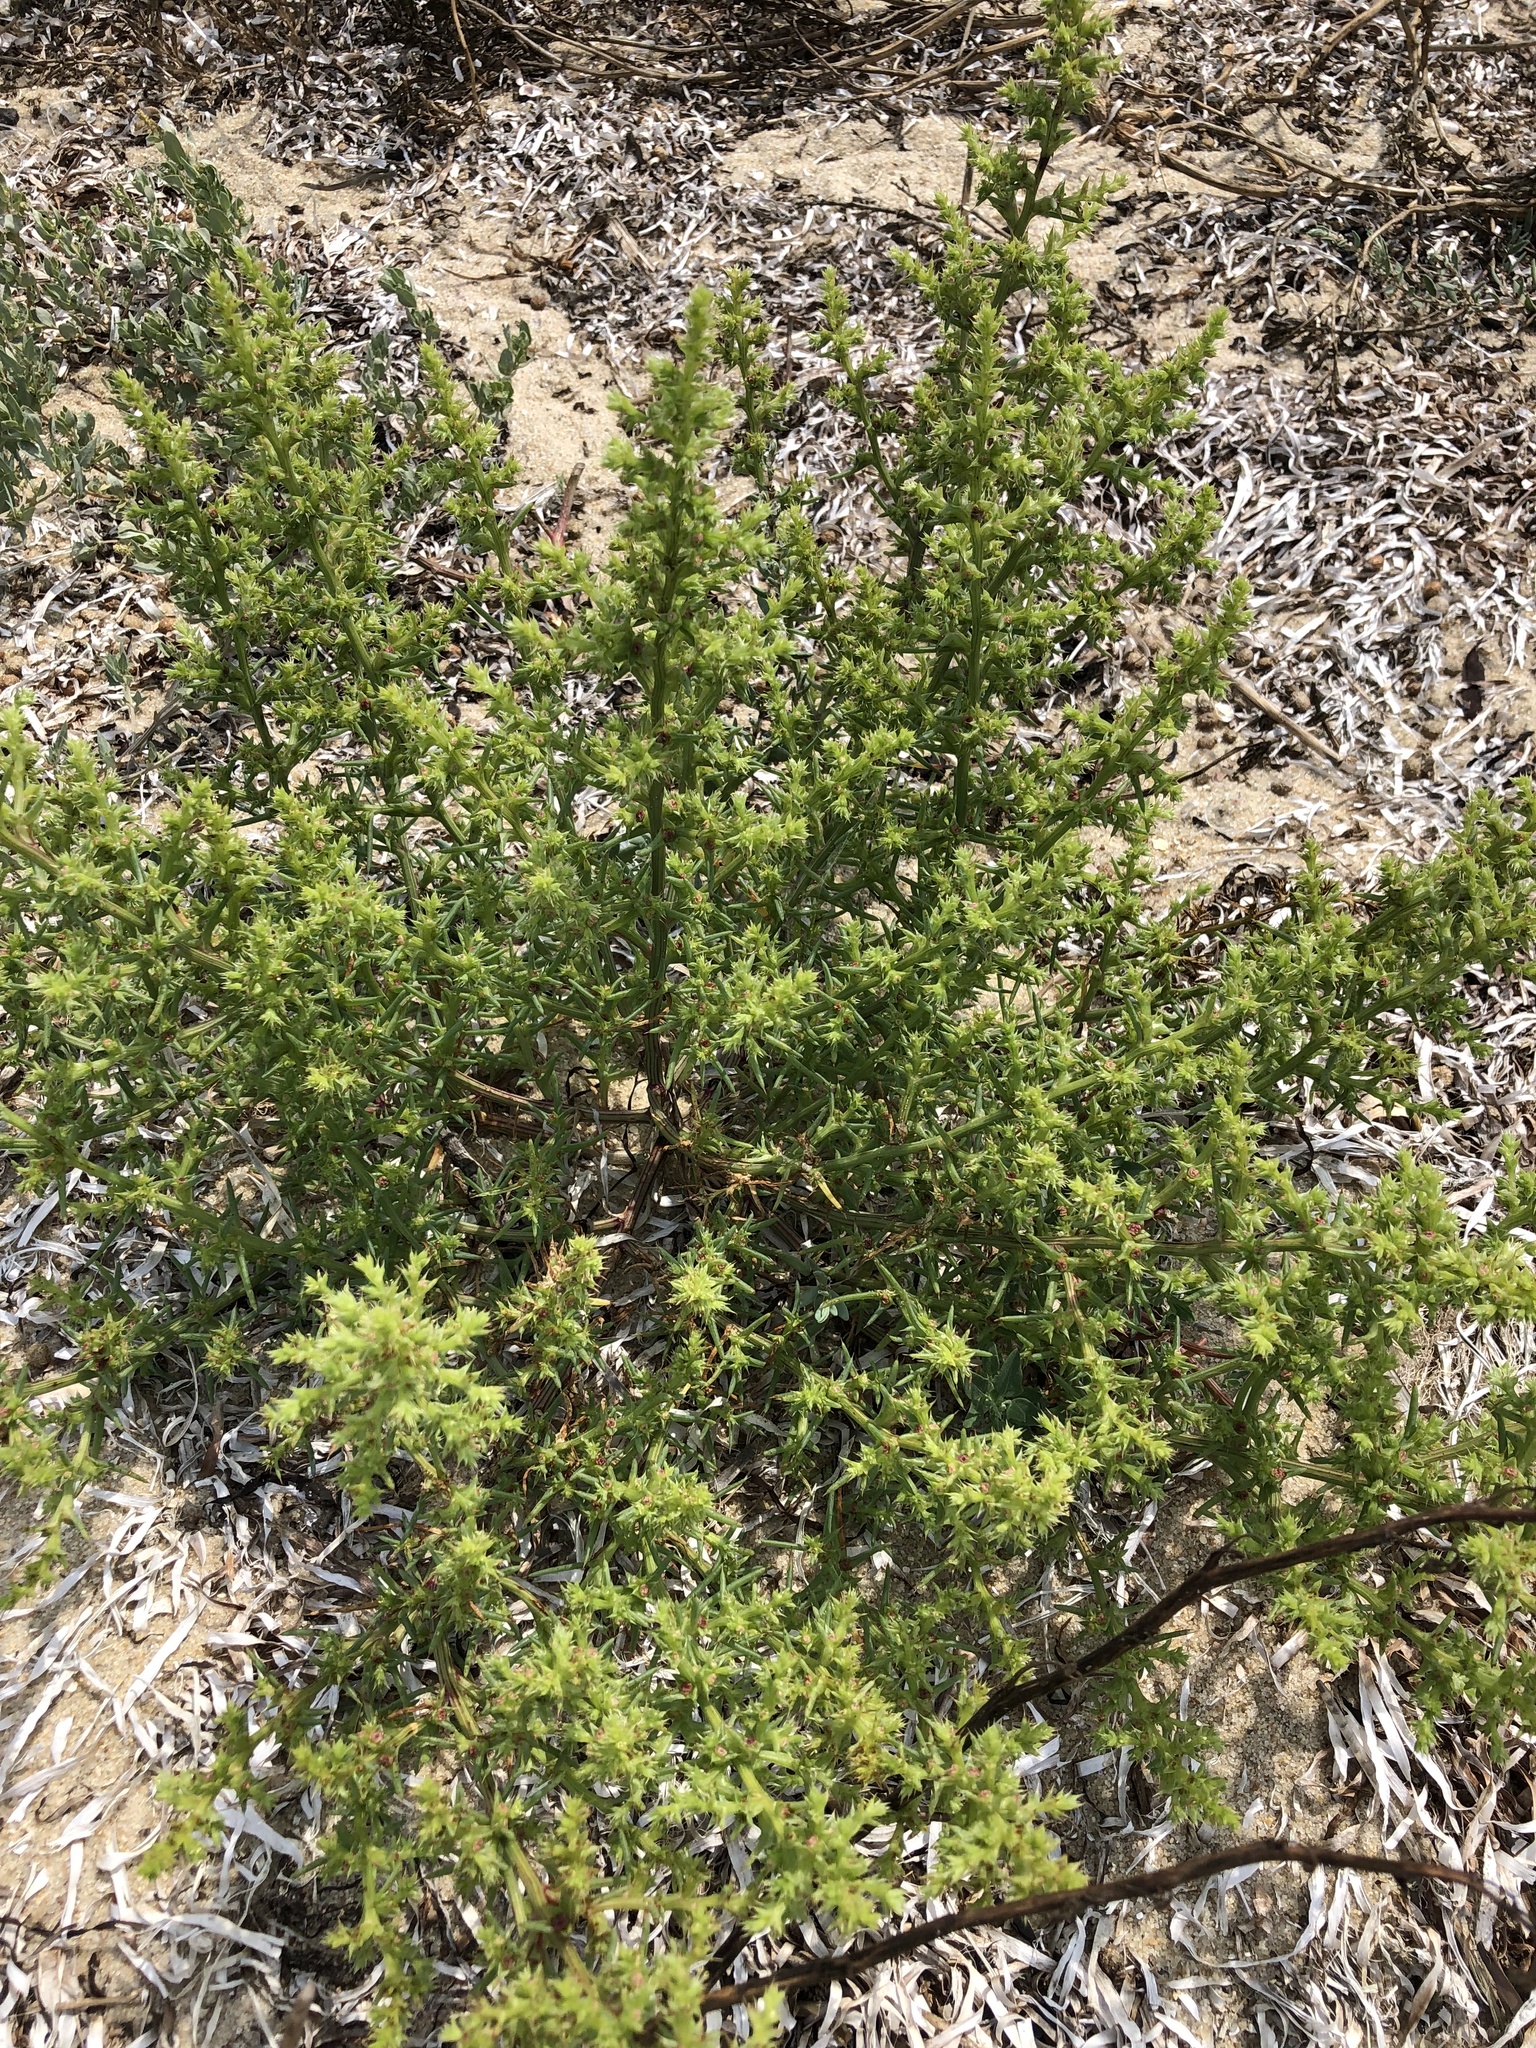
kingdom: Plantae
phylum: Tracheophyta
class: Magnoliopsida
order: Caryophyllales
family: Amaranthaceae
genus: Salsola
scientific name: Salsola kali
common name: Saltwort
